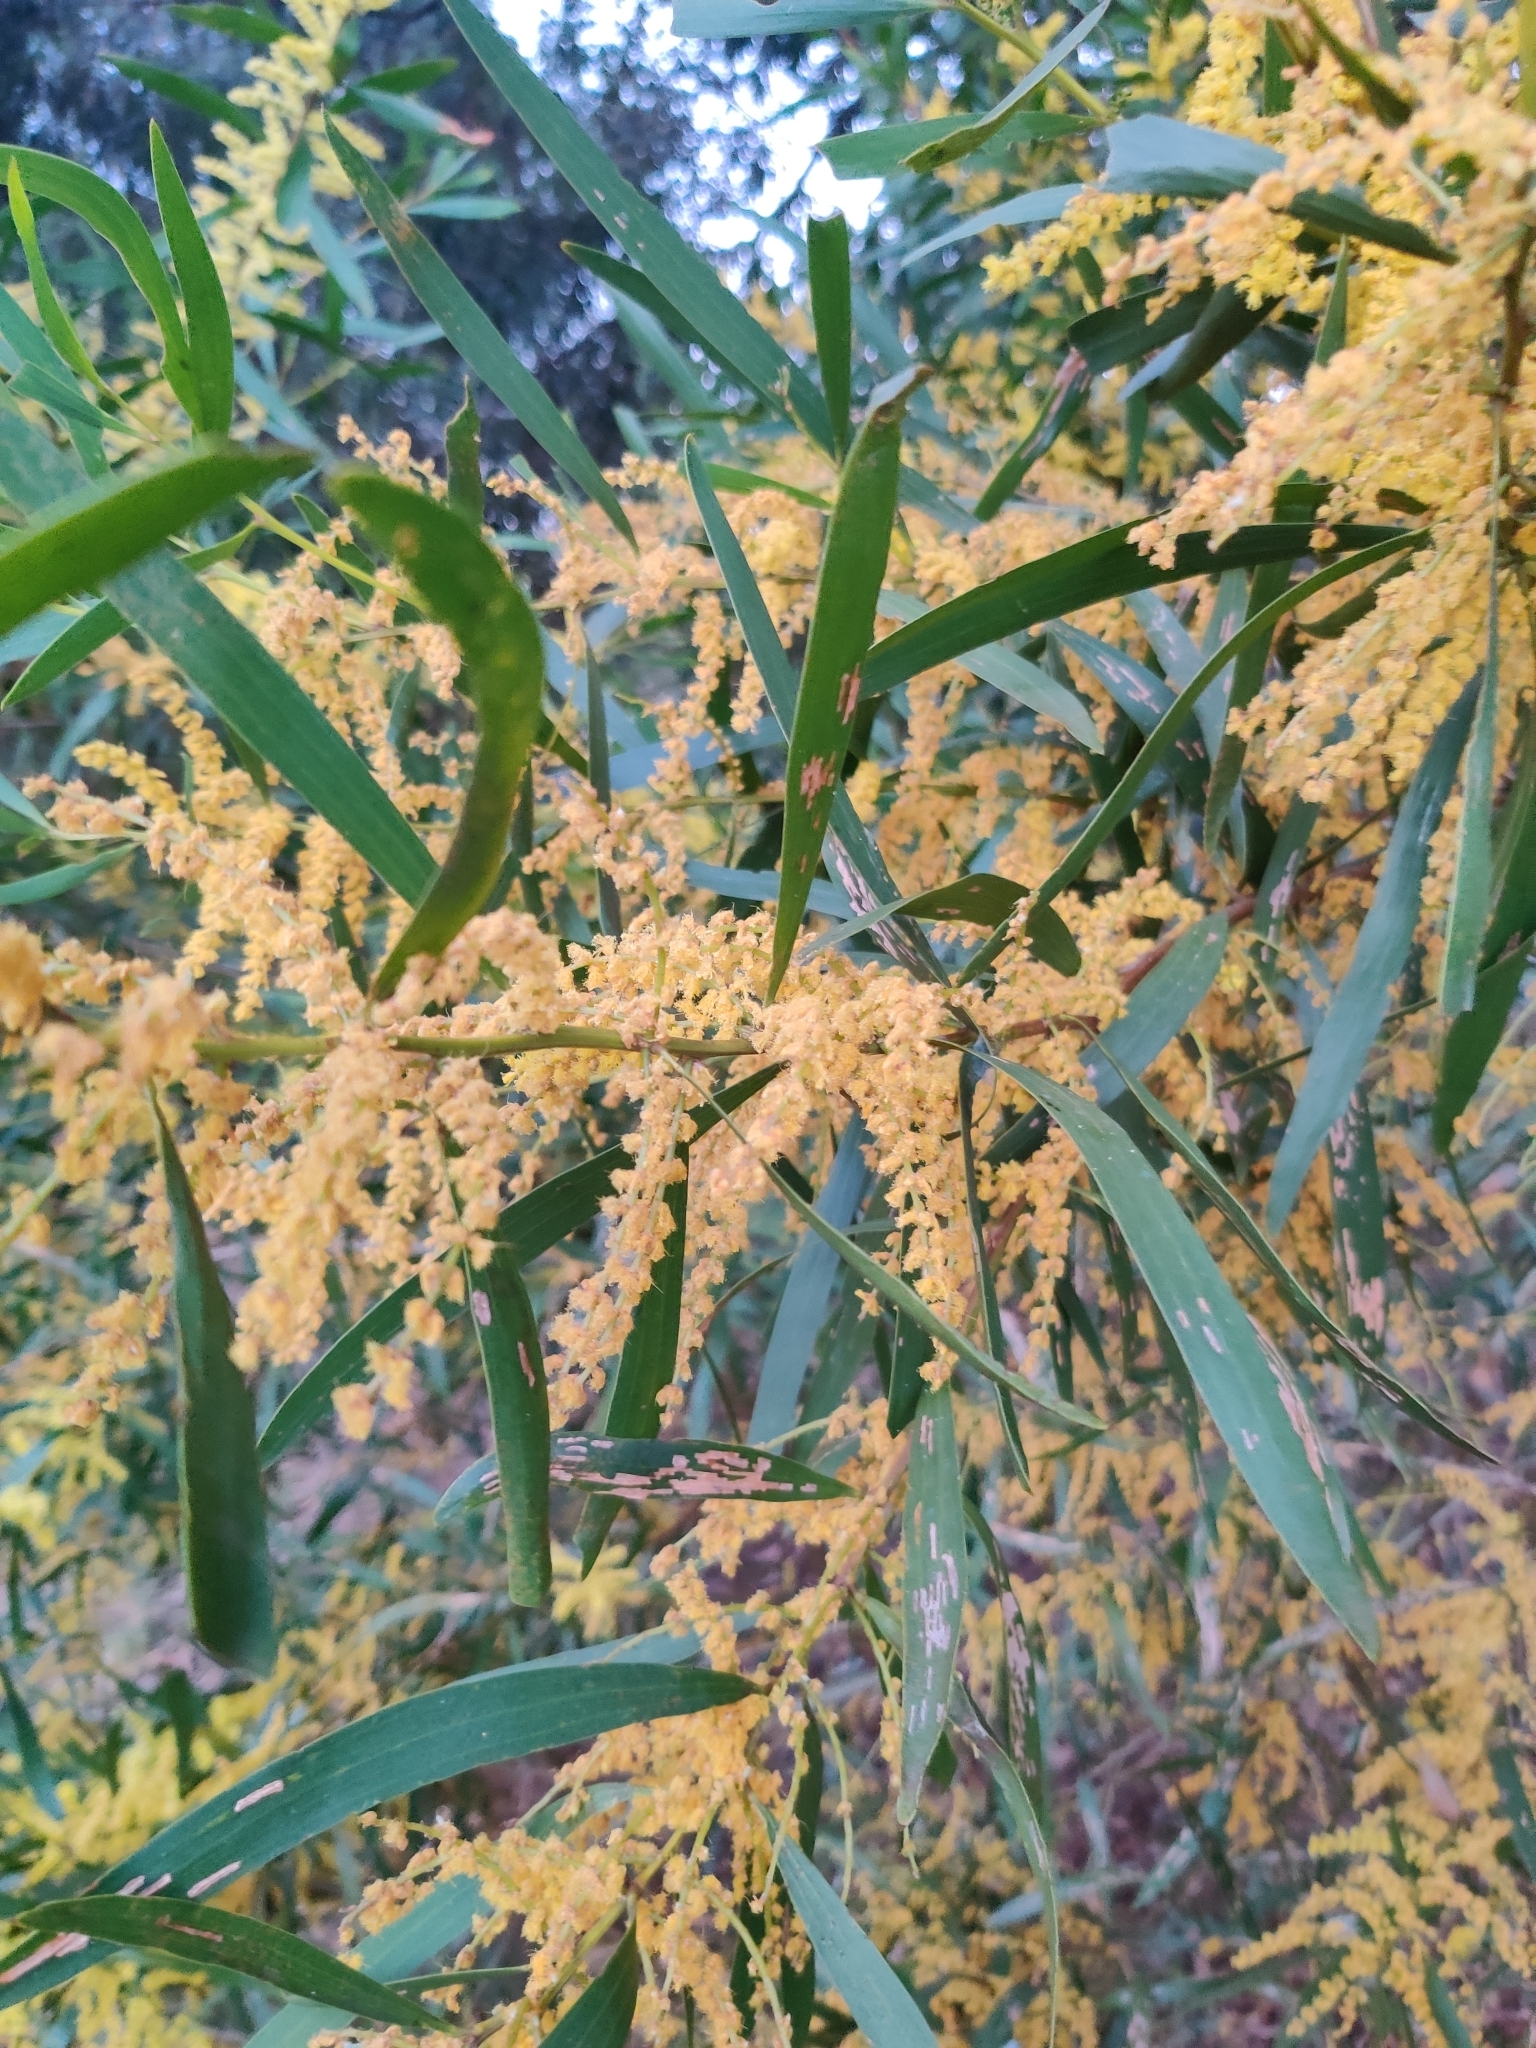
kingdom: Plantae
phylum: Tracheophyta
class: Magnoliopsida
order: Fabales
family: Fabaceae
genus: Acacia
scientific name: Acacia longifolia
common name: Sydney golden wattle
